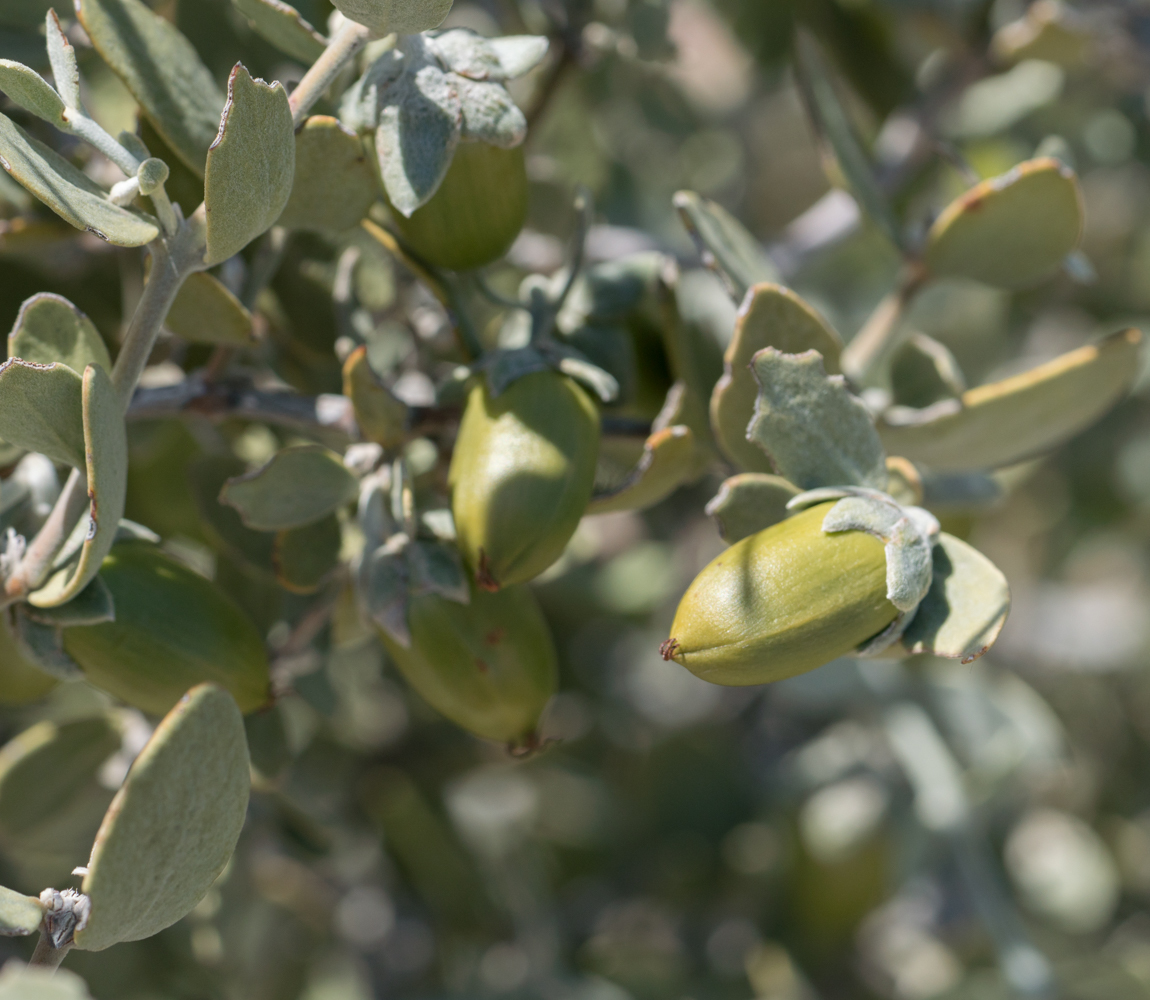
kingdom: Plantae
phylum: Tracheophyta
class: Magnoliopsida
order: Caryophyllales
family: Simmondsiaceae
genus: Simmondsia
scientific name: Simmondsia chinensis
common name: Jojoba
